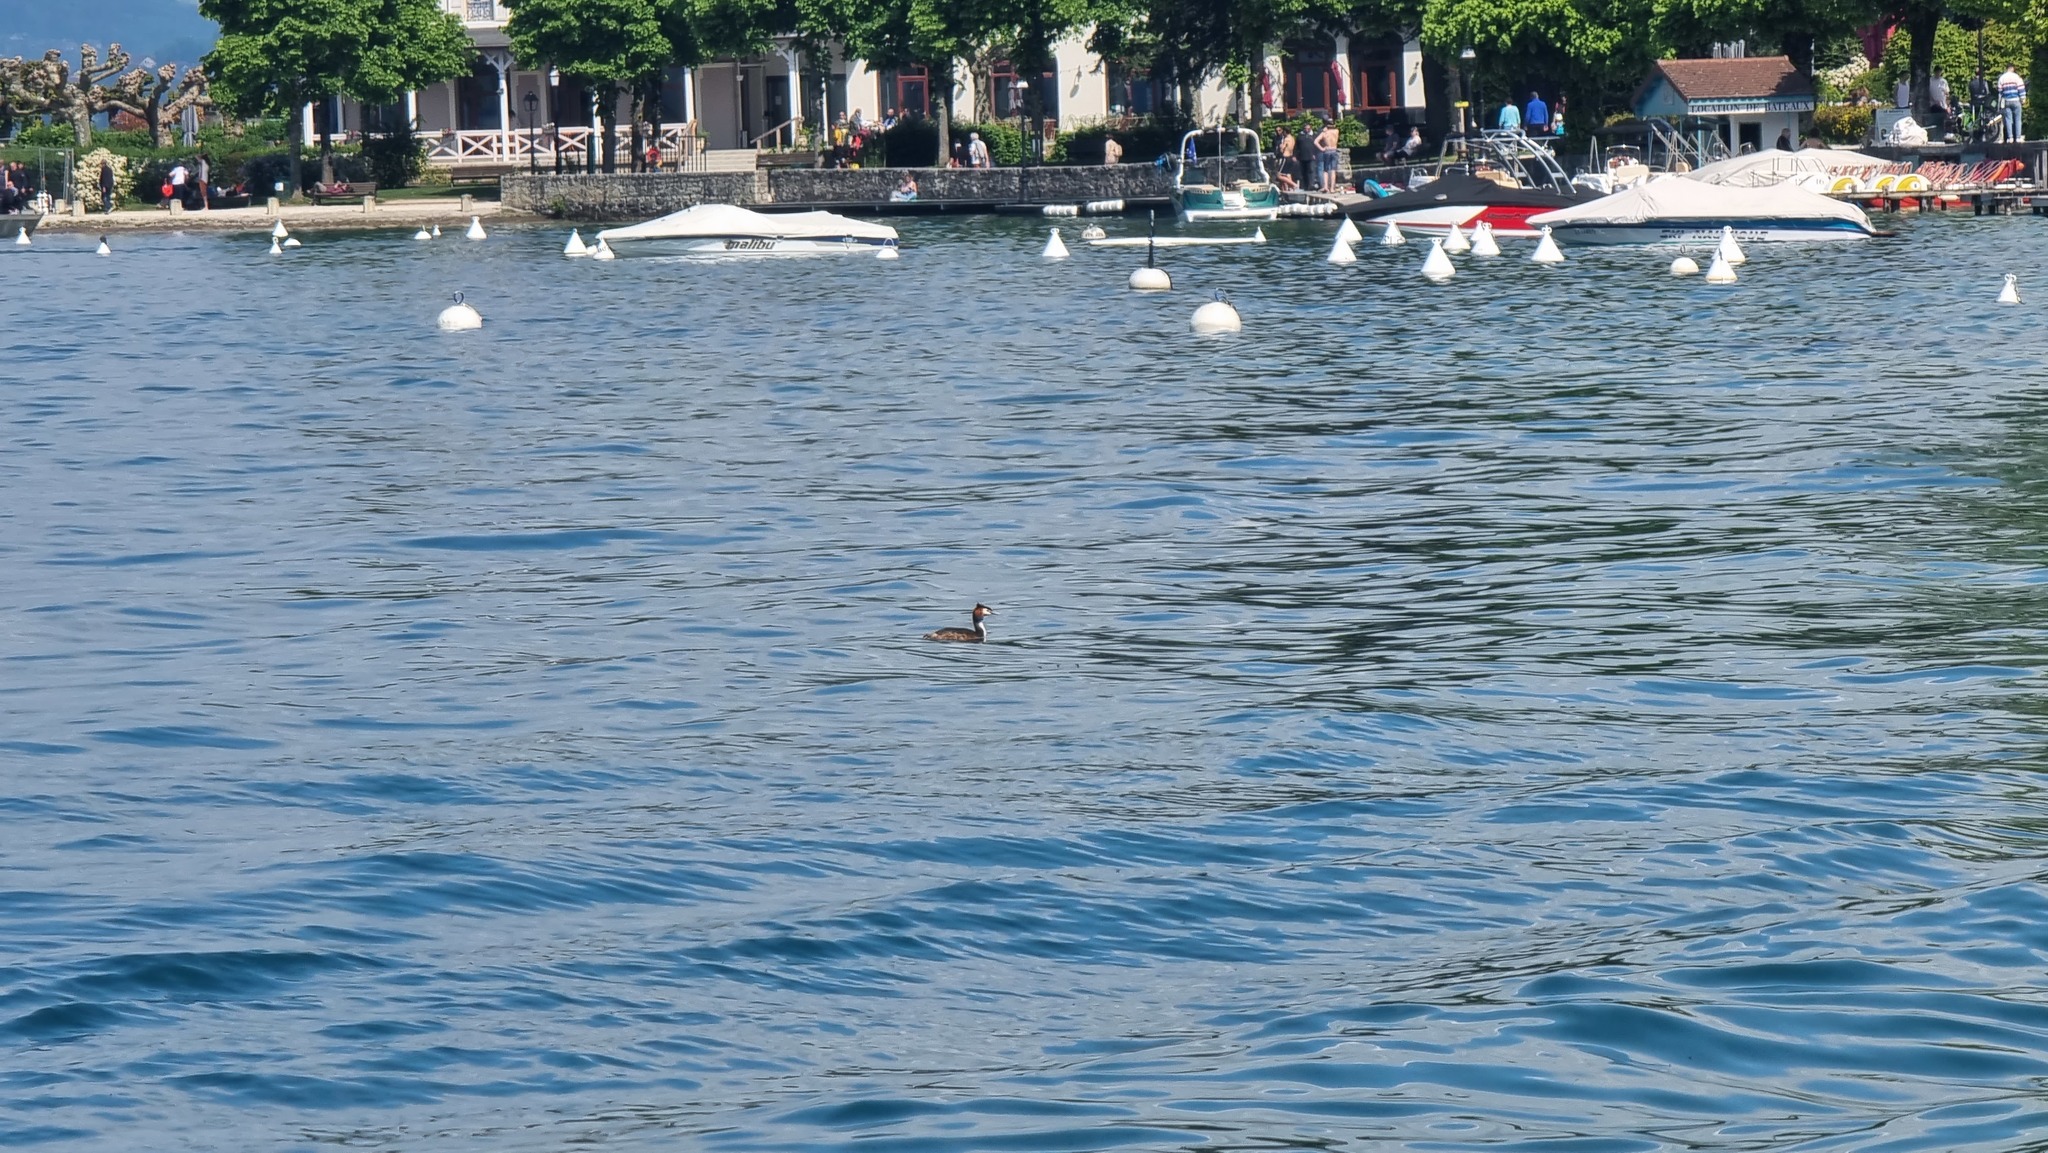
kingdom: Animalia
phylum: Chordata
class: Aves
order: Podicipediformes
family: Podicipedidae
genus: Podiceps
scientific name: Podiceps cristatus
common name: Great crested grebe
